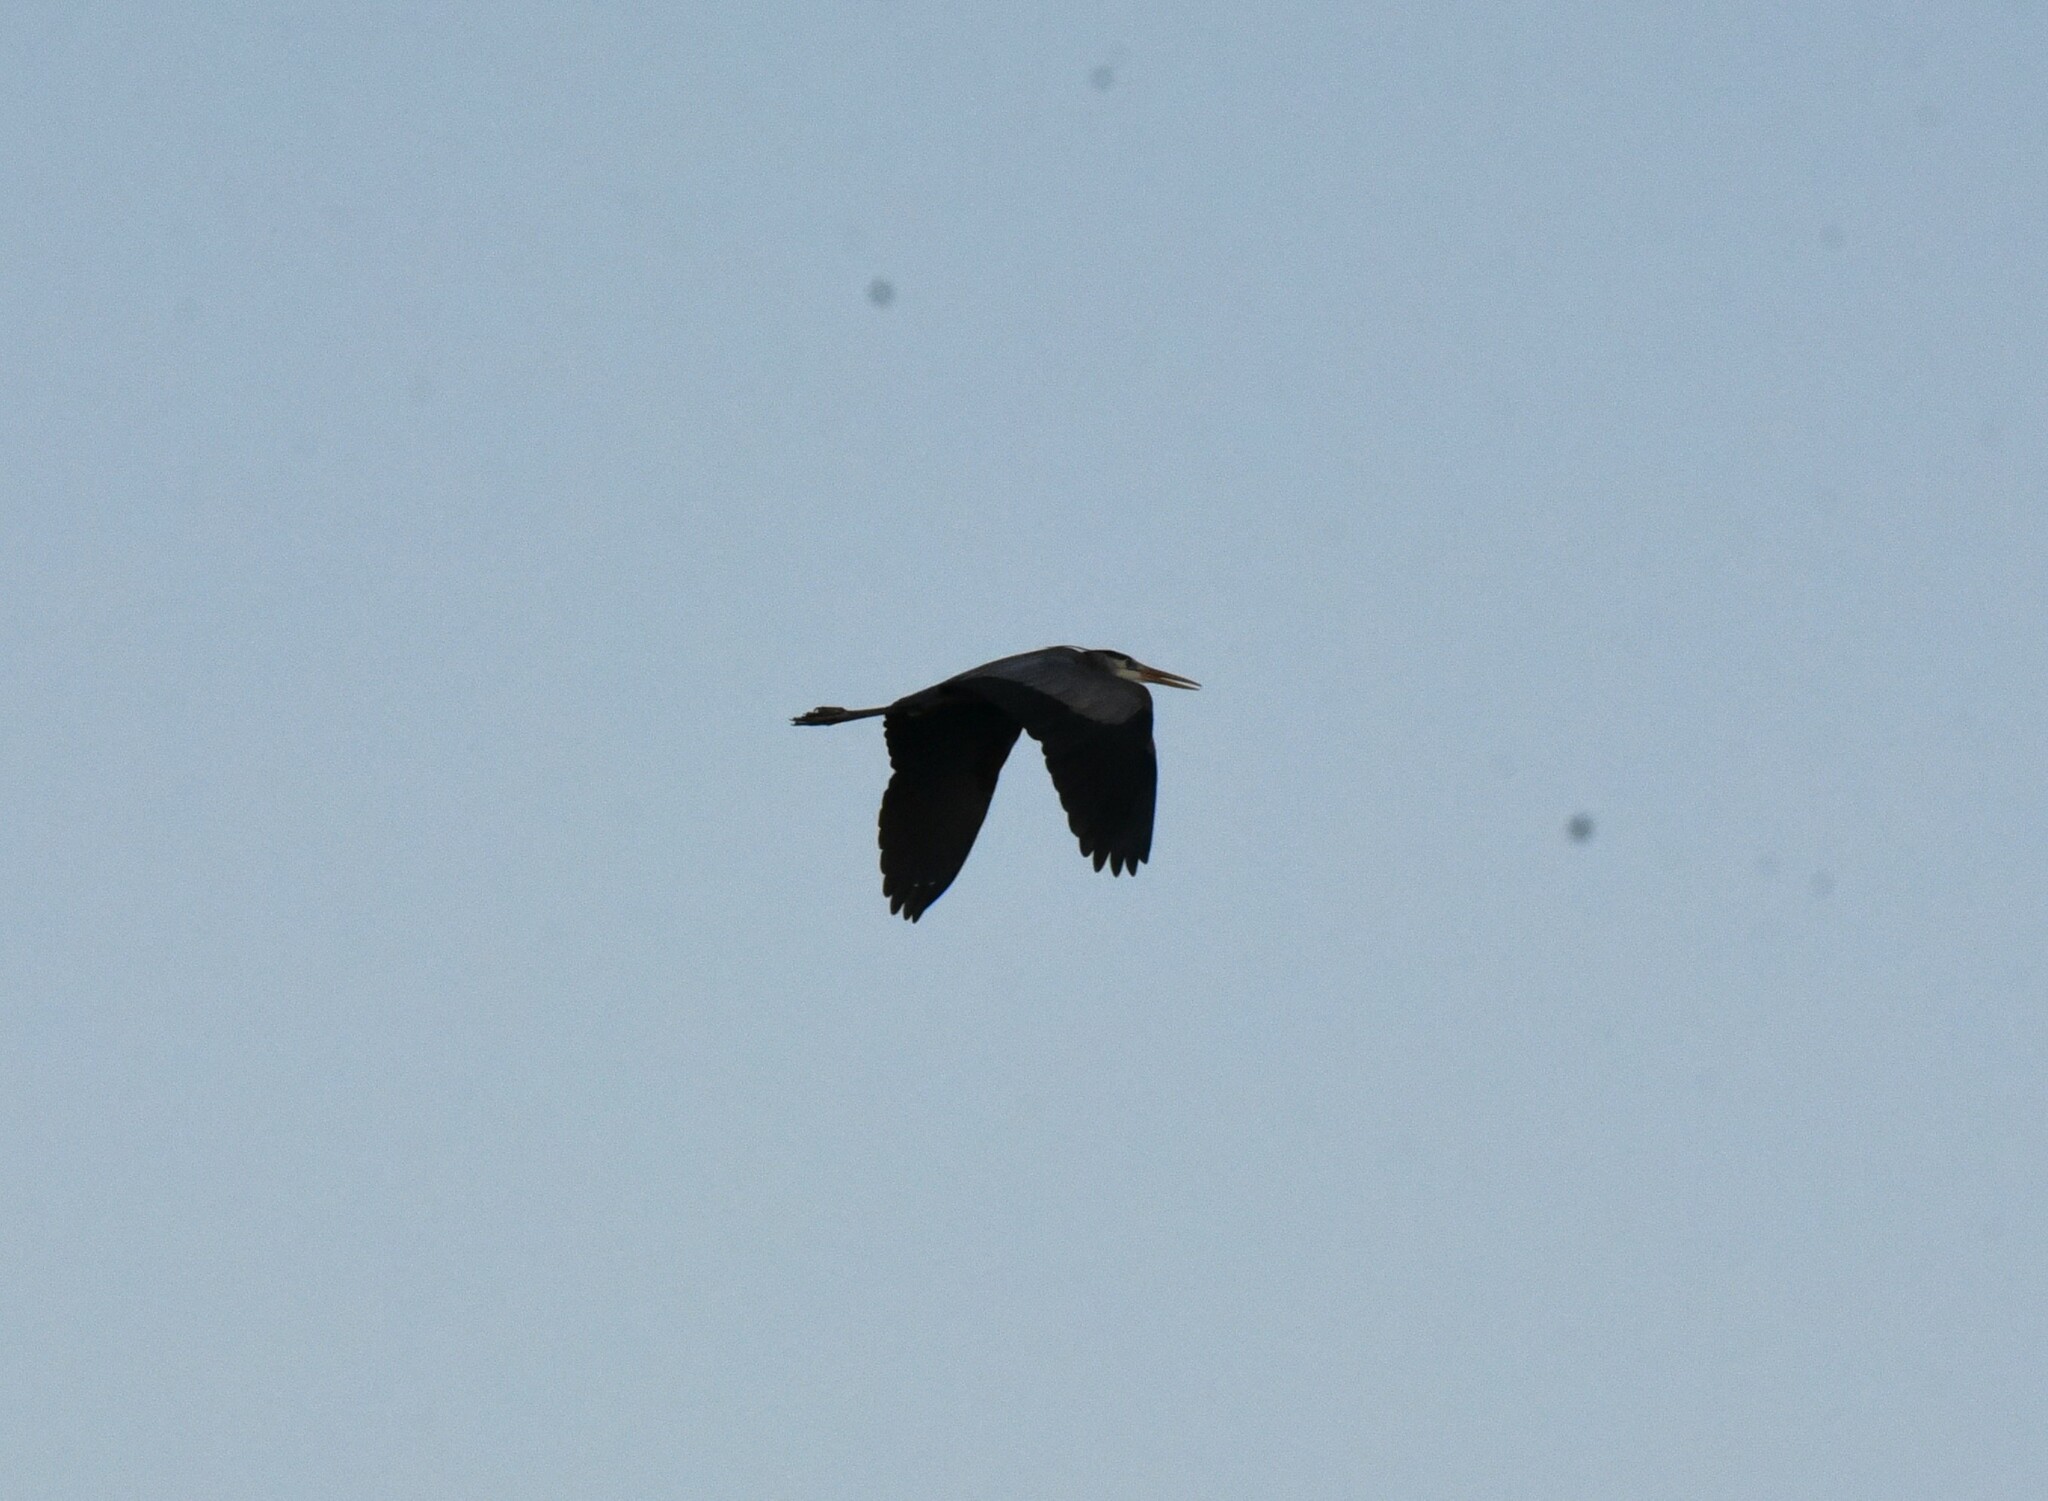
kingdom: Animalia
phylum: Chordata
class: Aves
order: Pelecaniformes
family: Ardeidae
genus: Ardea
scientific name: Ardea herodias
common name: Great blue heron
